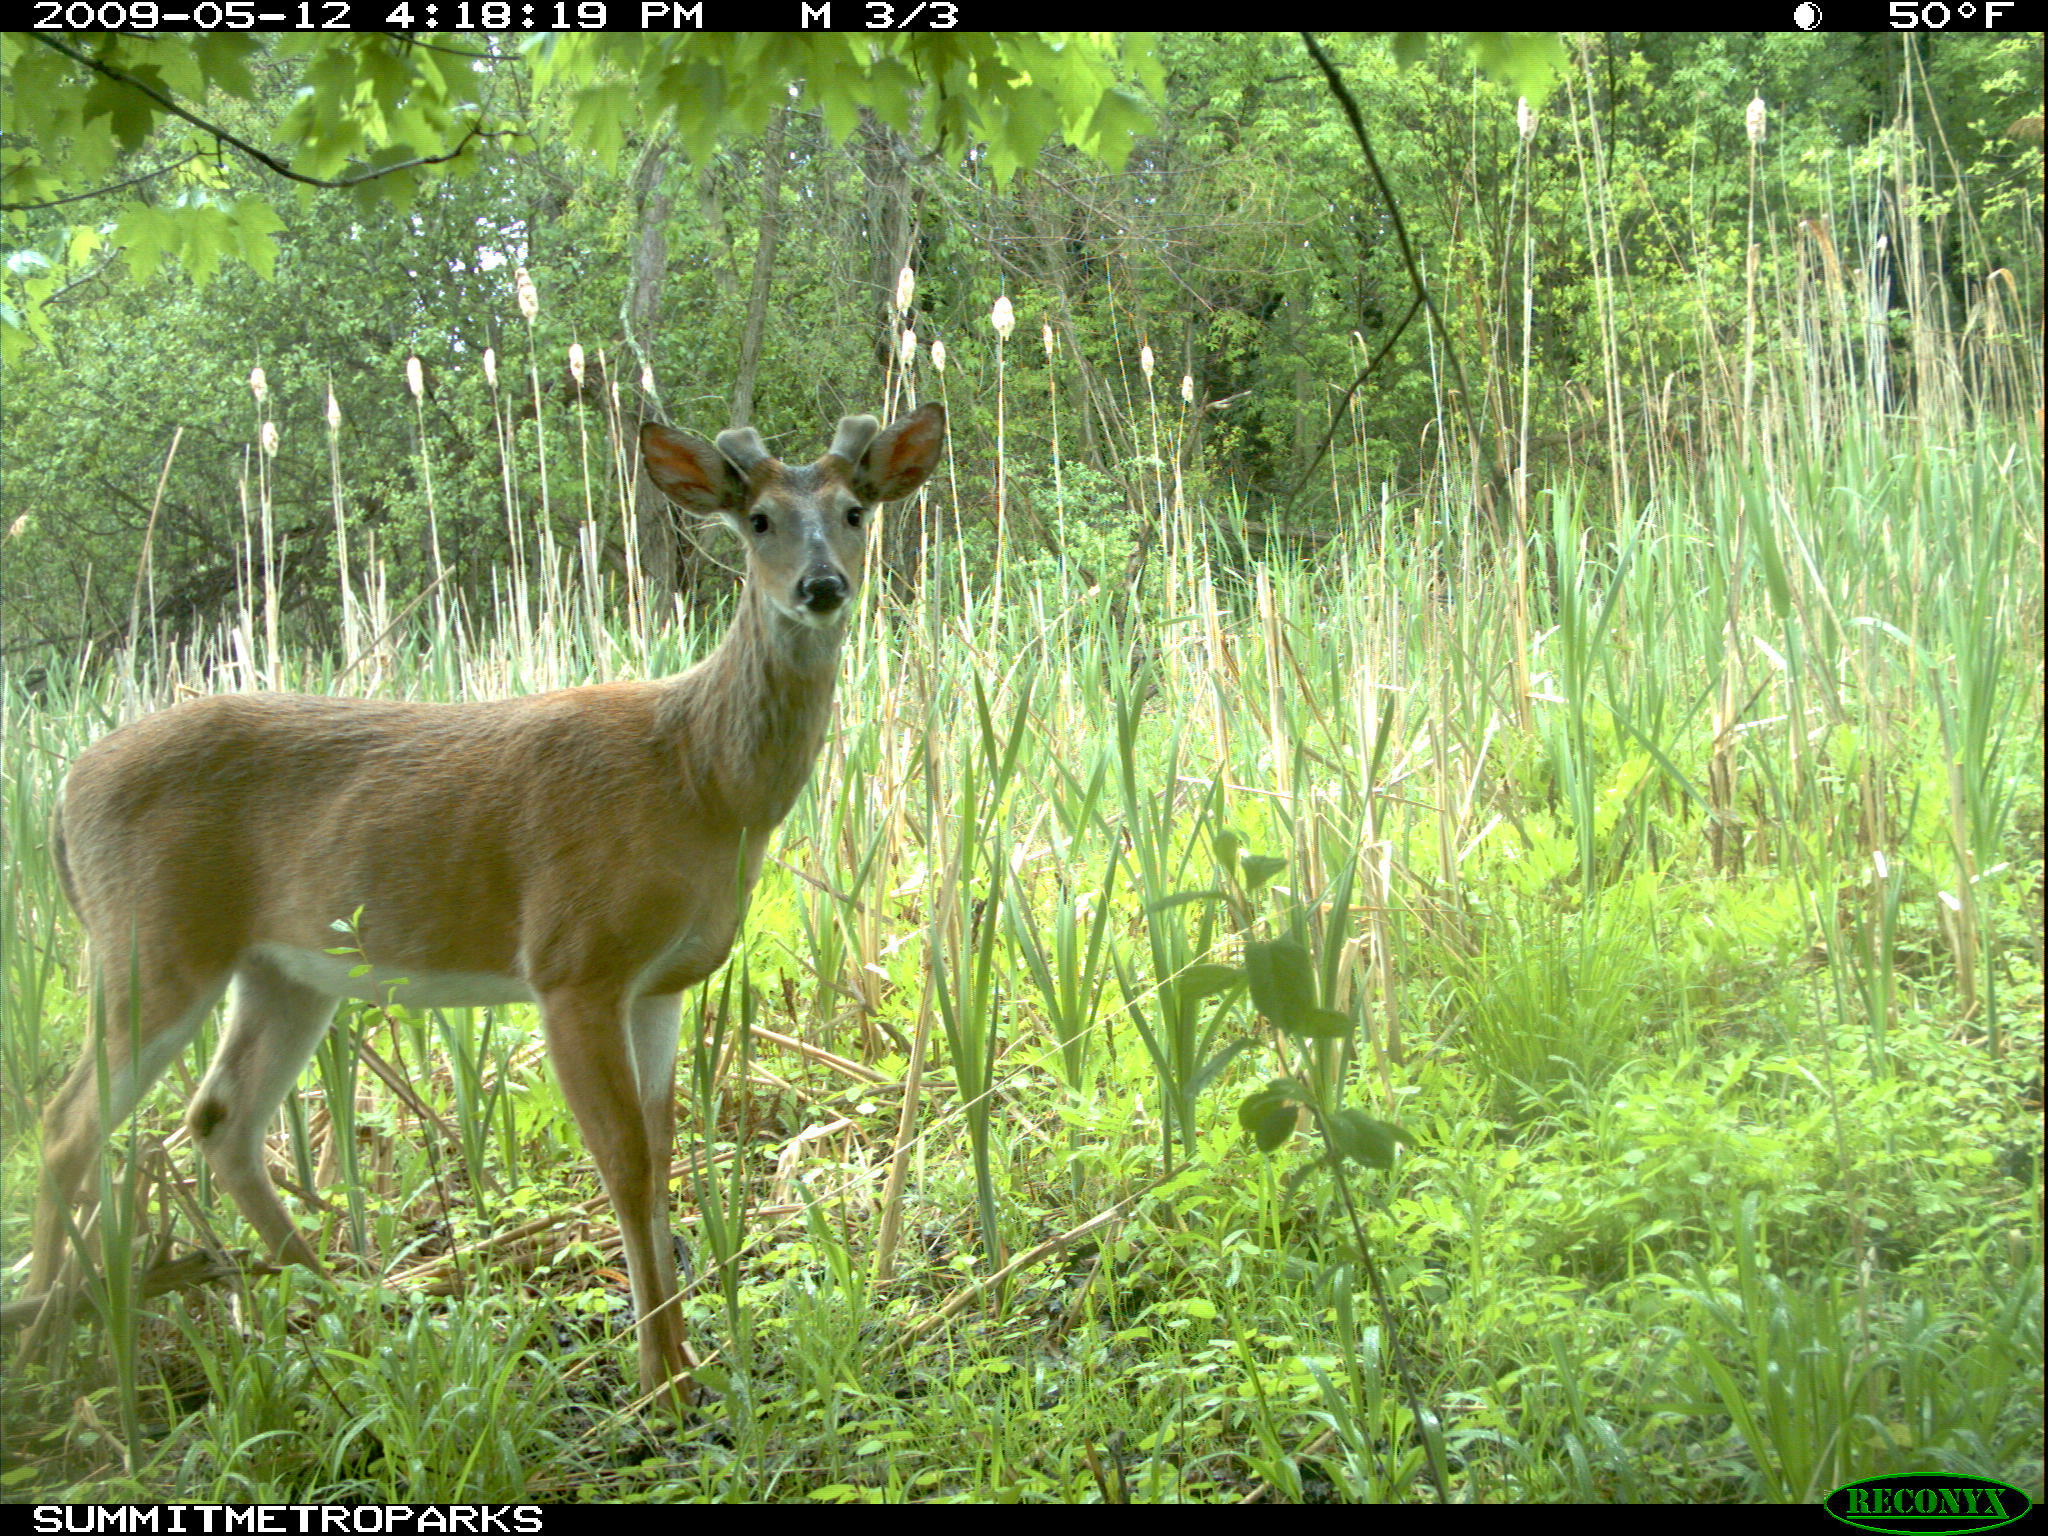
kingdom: Animalia
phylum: Chordata
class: Mammalia
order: Artiodactyla
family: Cervidae
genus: Odocoileus
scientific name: Odocoileus virginianus
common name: White-tailed deer
